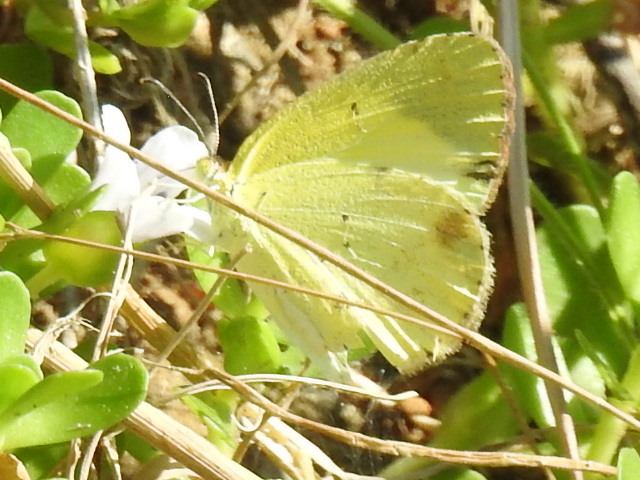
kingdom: Animalia
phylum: Arthropoda
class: Insecta
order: Lepidoptera
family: Pieridae
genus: Pyrisitia
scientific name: Pyrisitia lisa
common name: Little yellow
